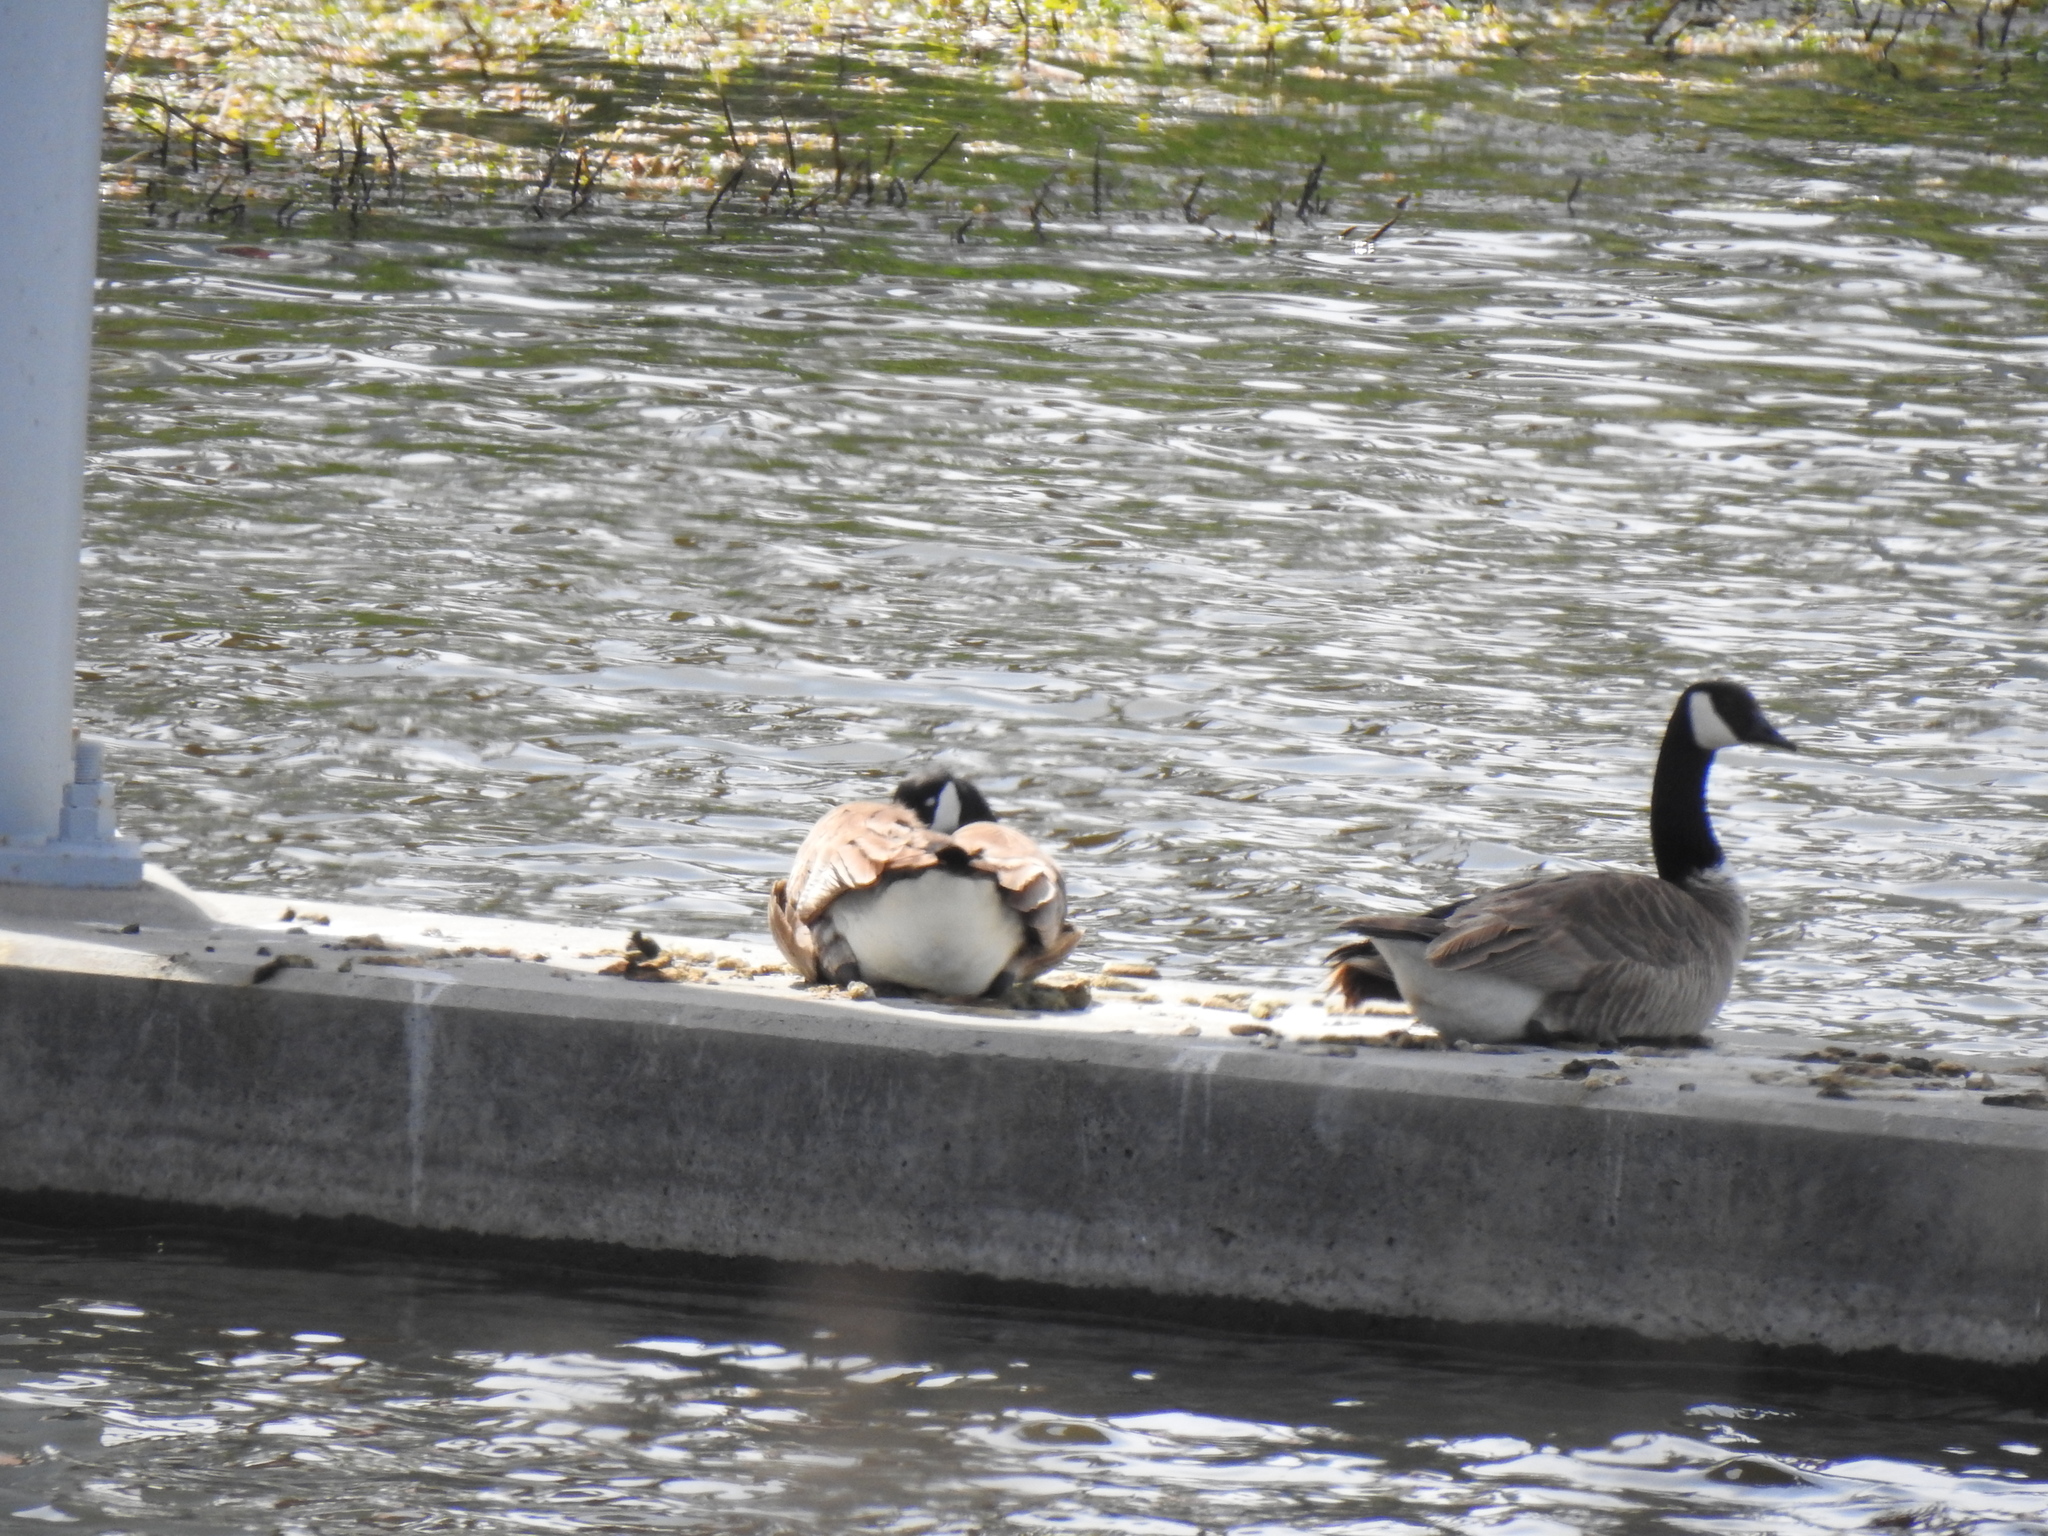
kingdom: Animalia
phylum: Chordata
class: Aves
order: Anseriformes
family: Anatidae
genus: Branta
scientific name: Branta canadensis
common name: Canada goose
